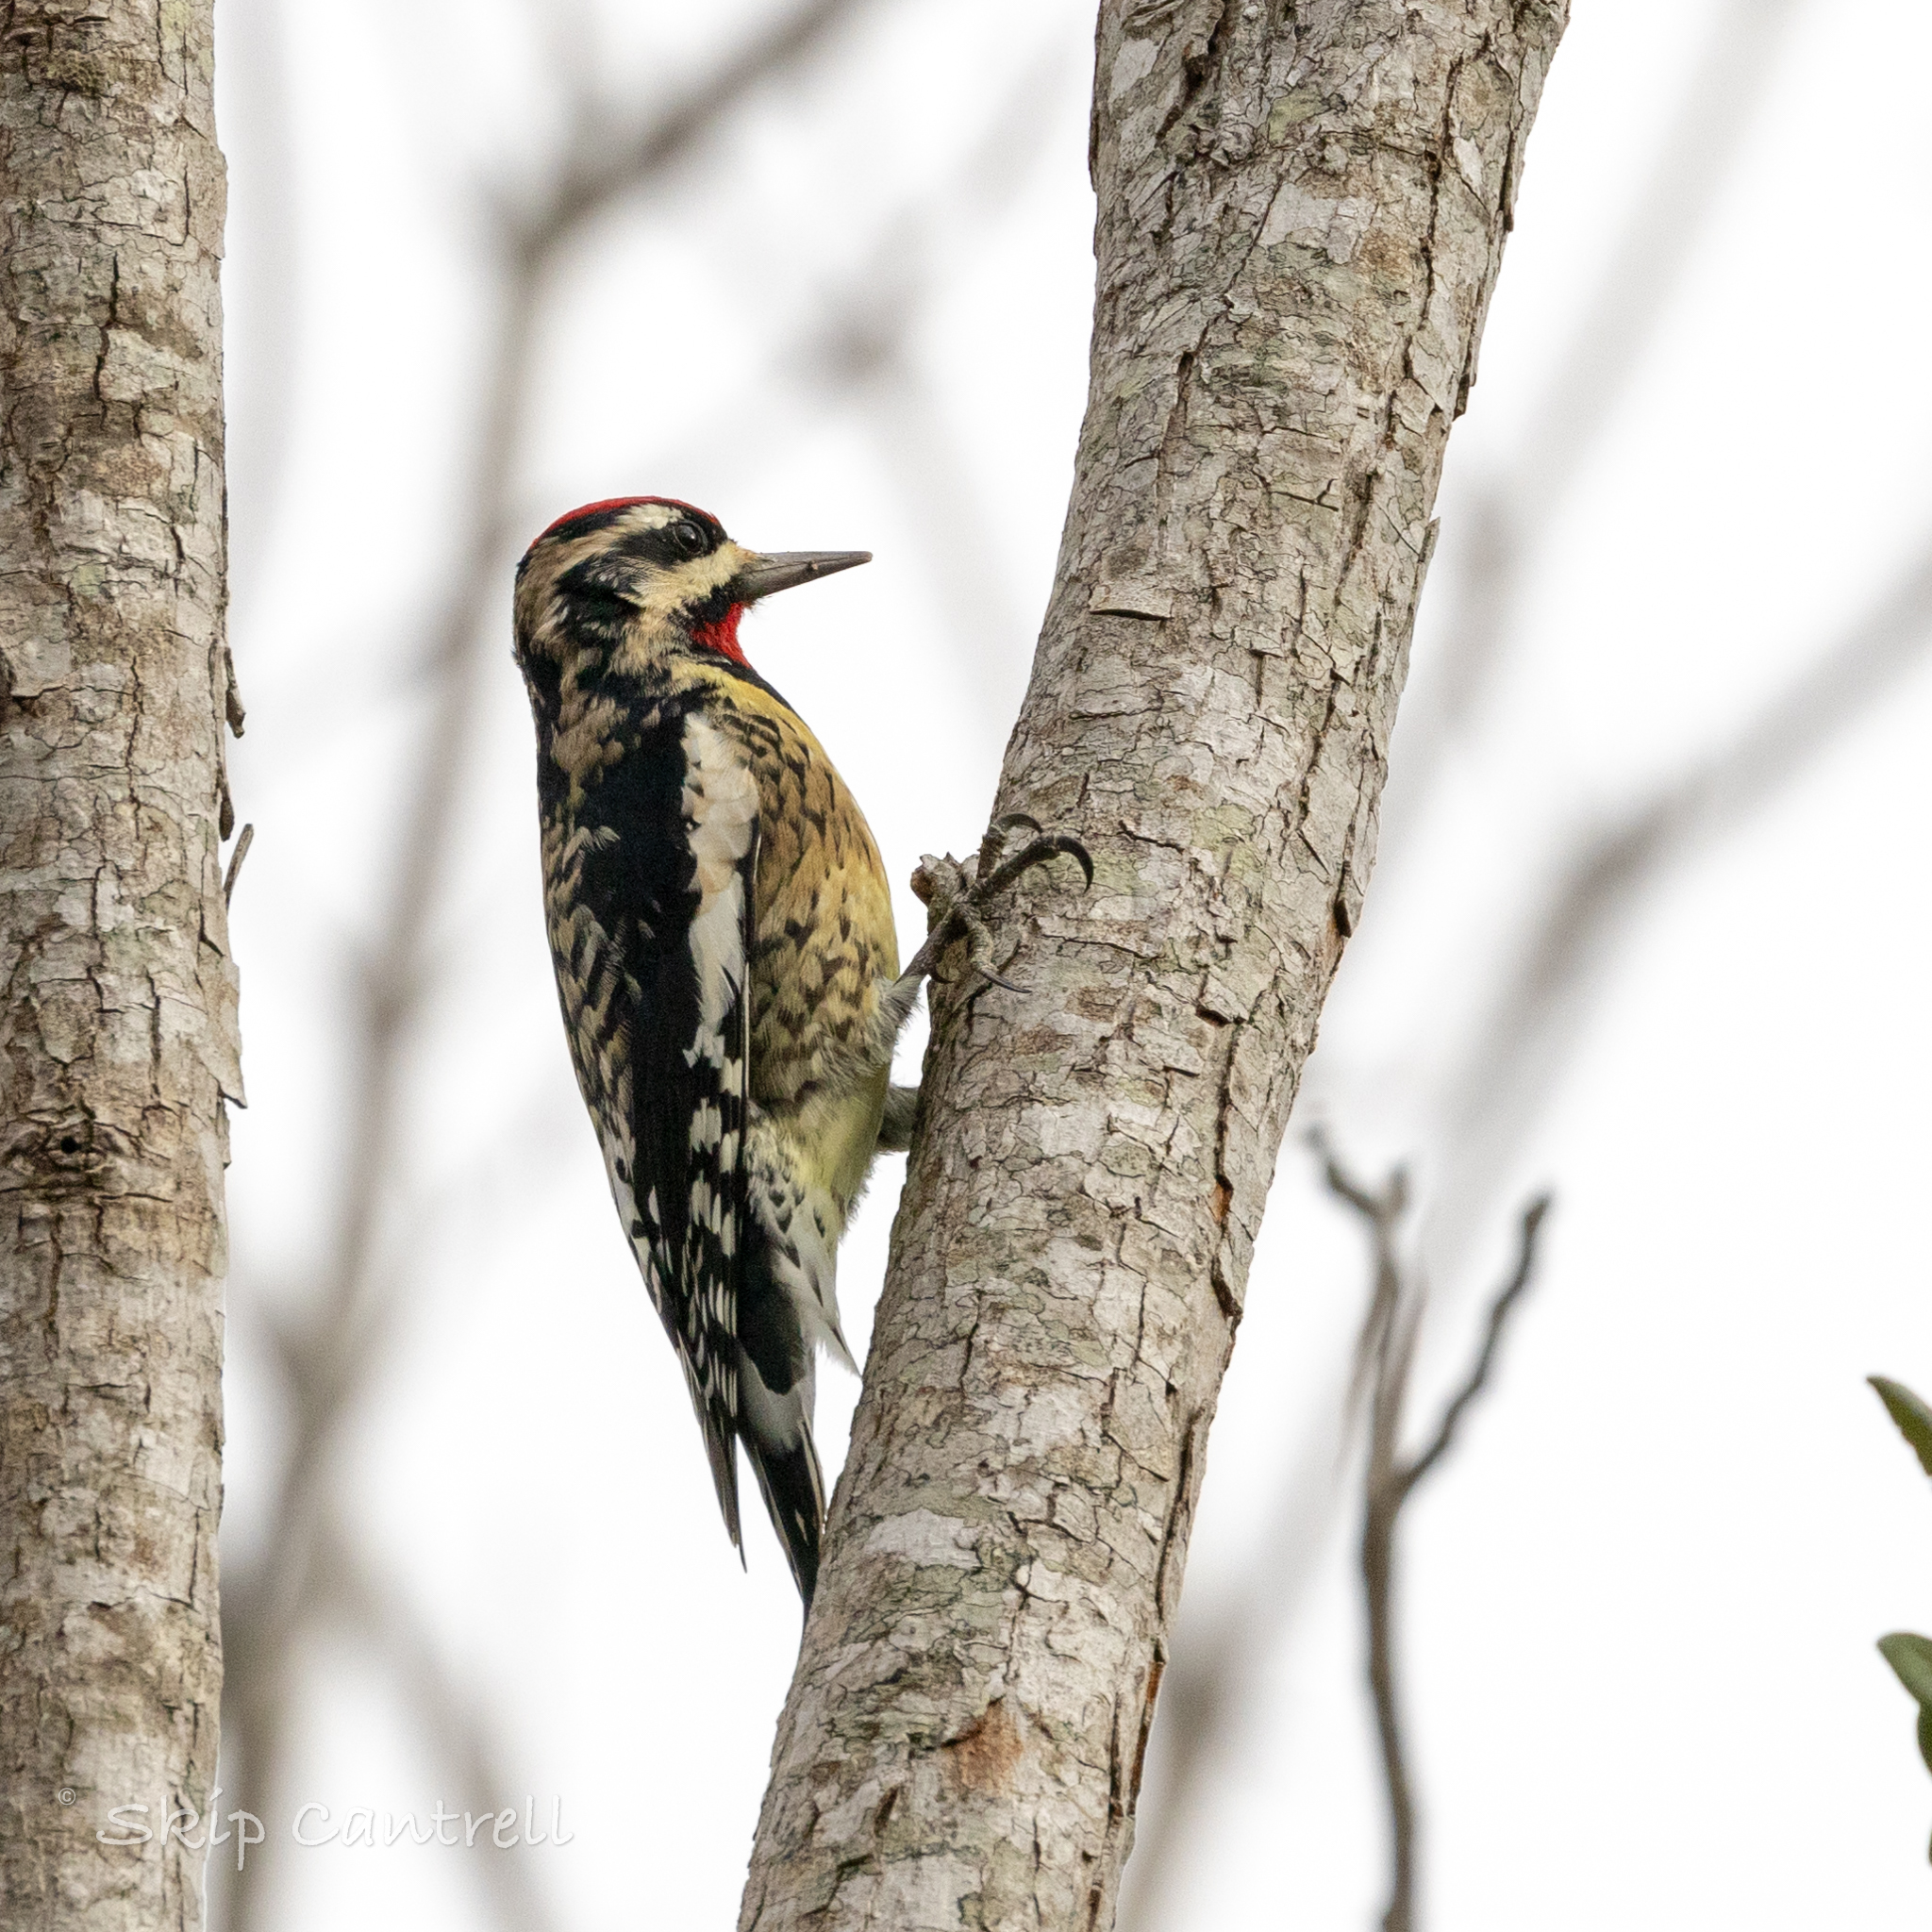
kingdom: Animalia
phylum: Chordata
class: Aves
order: Piciformes
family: Picidae
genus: Sphyrapicus
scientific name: Sphyrapicus varius
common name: Yellow-bellied sapsucker
